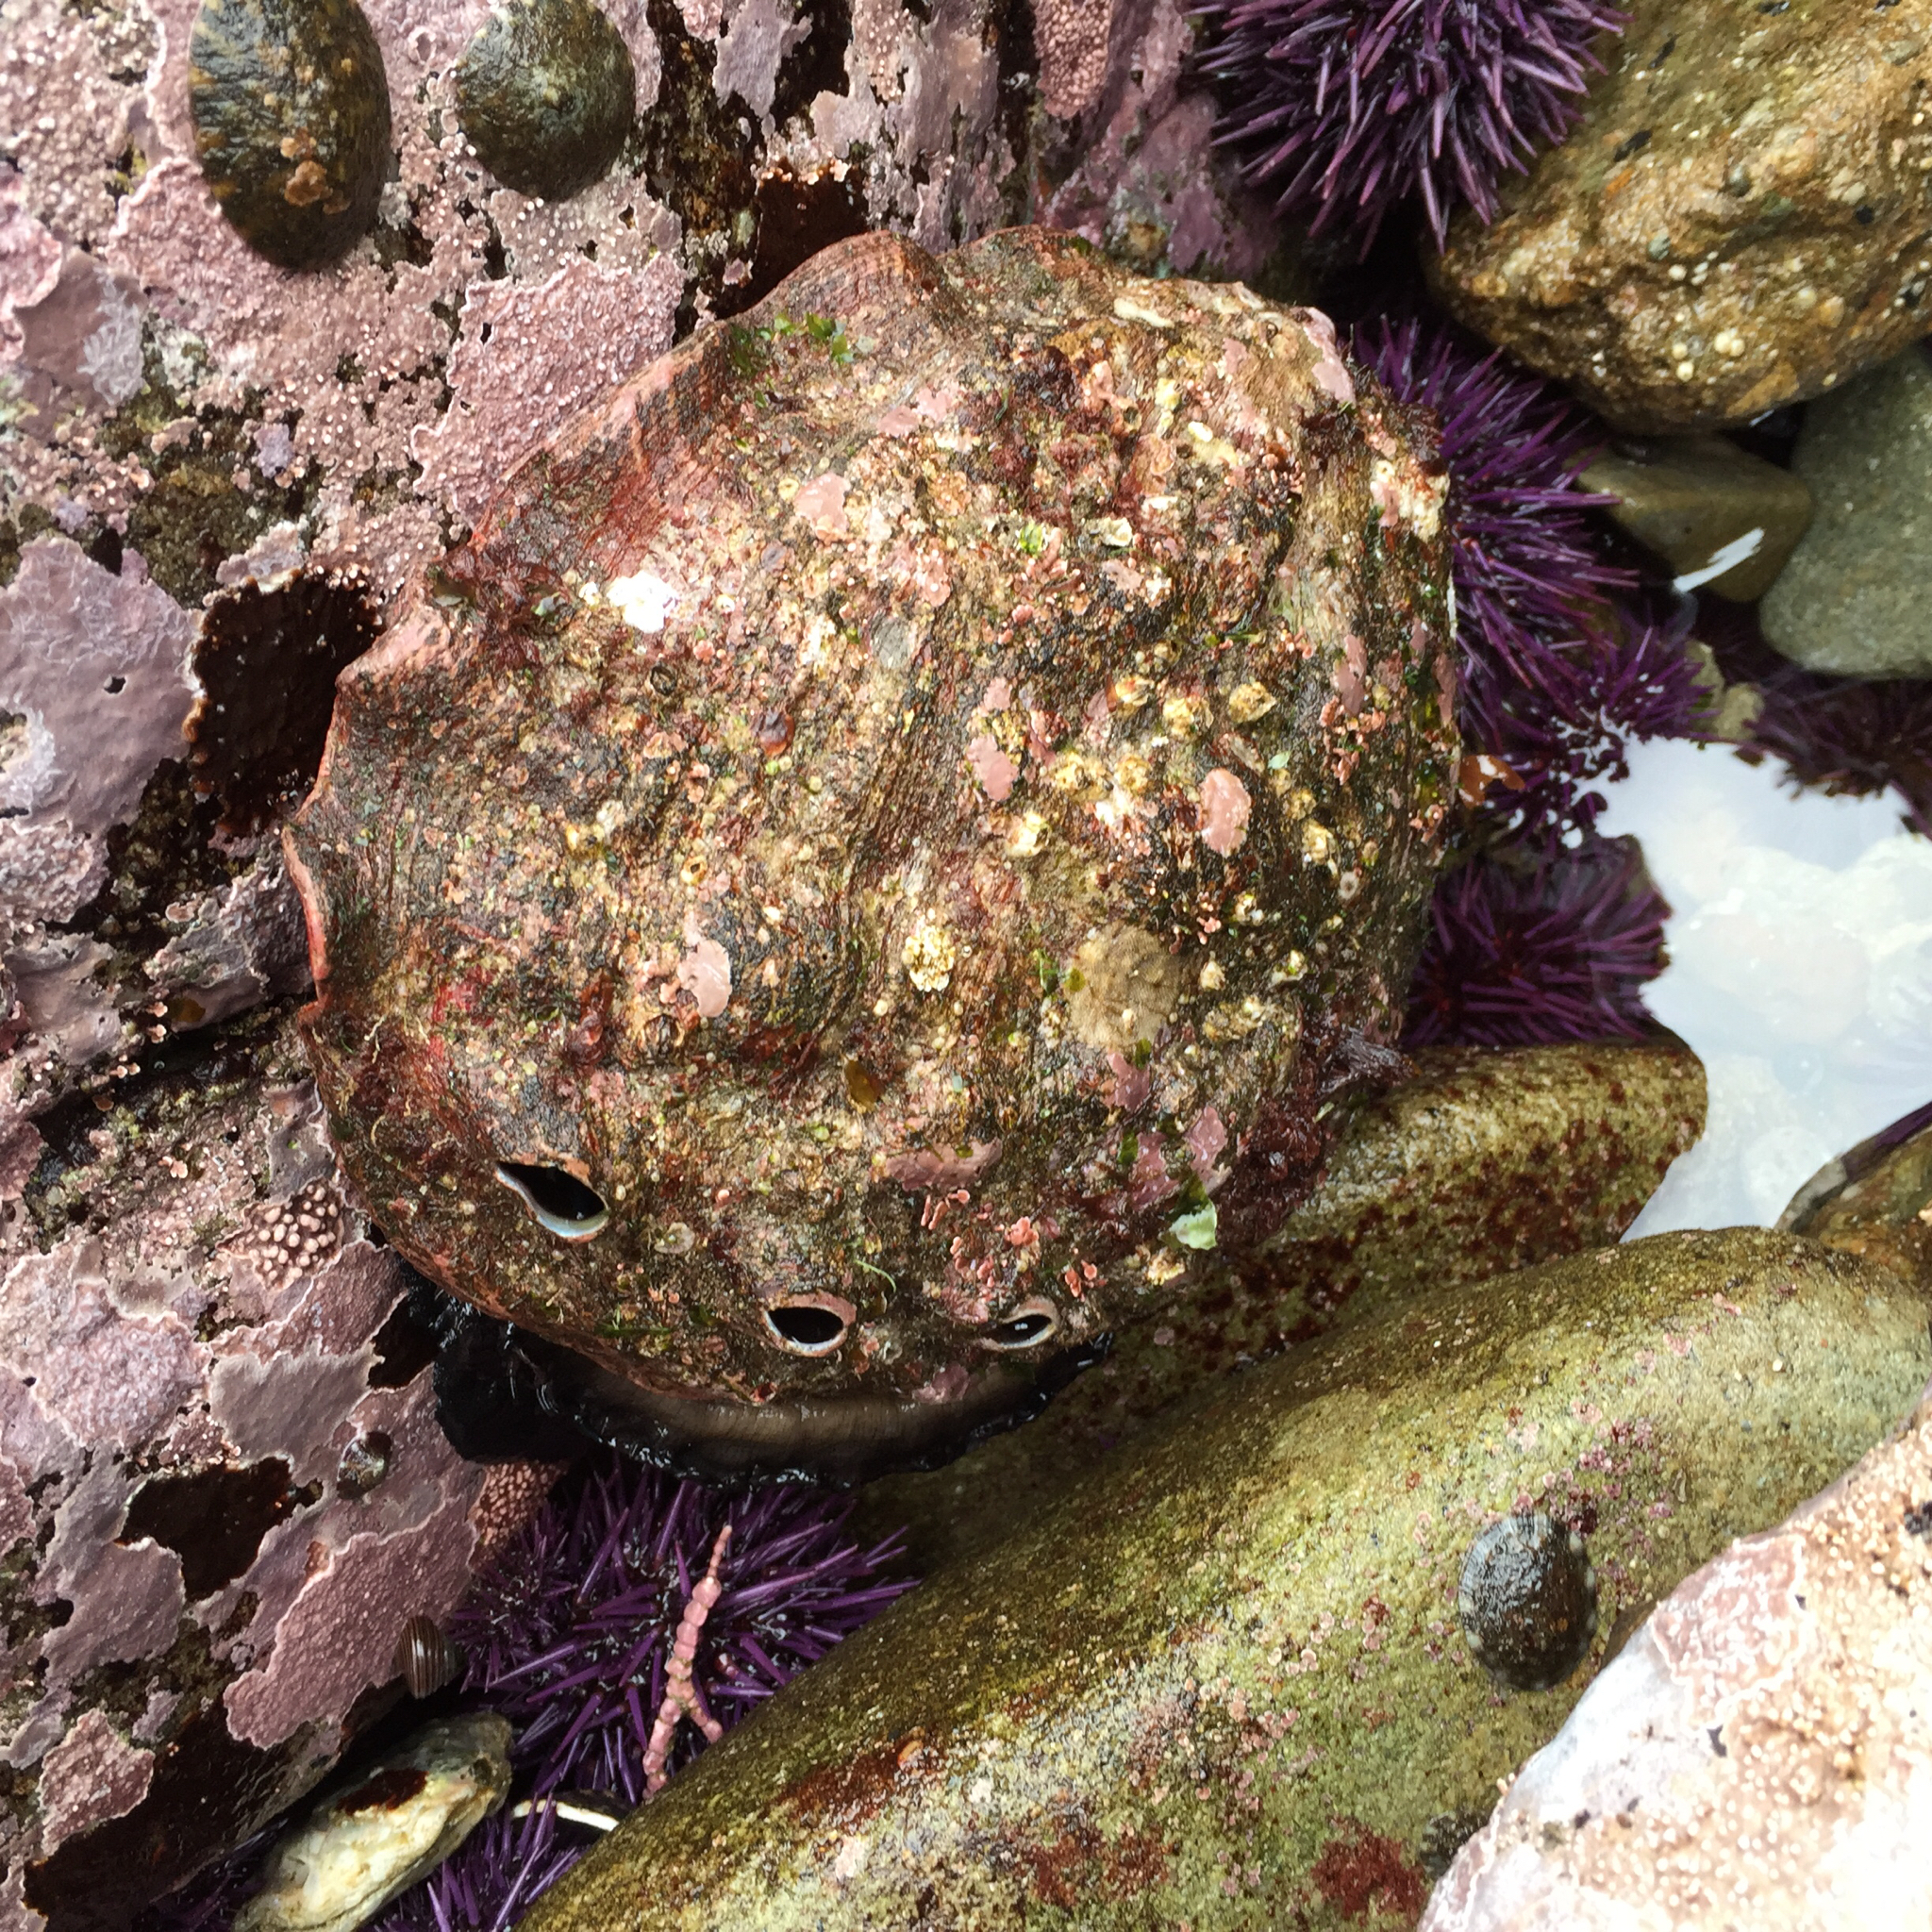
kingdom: Animalia
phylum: Mollusca
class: Gastropoda
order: Lepetellida
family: Haliotidae
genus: Haliotis
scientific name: Haliotis rufescens
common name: Red abalone
